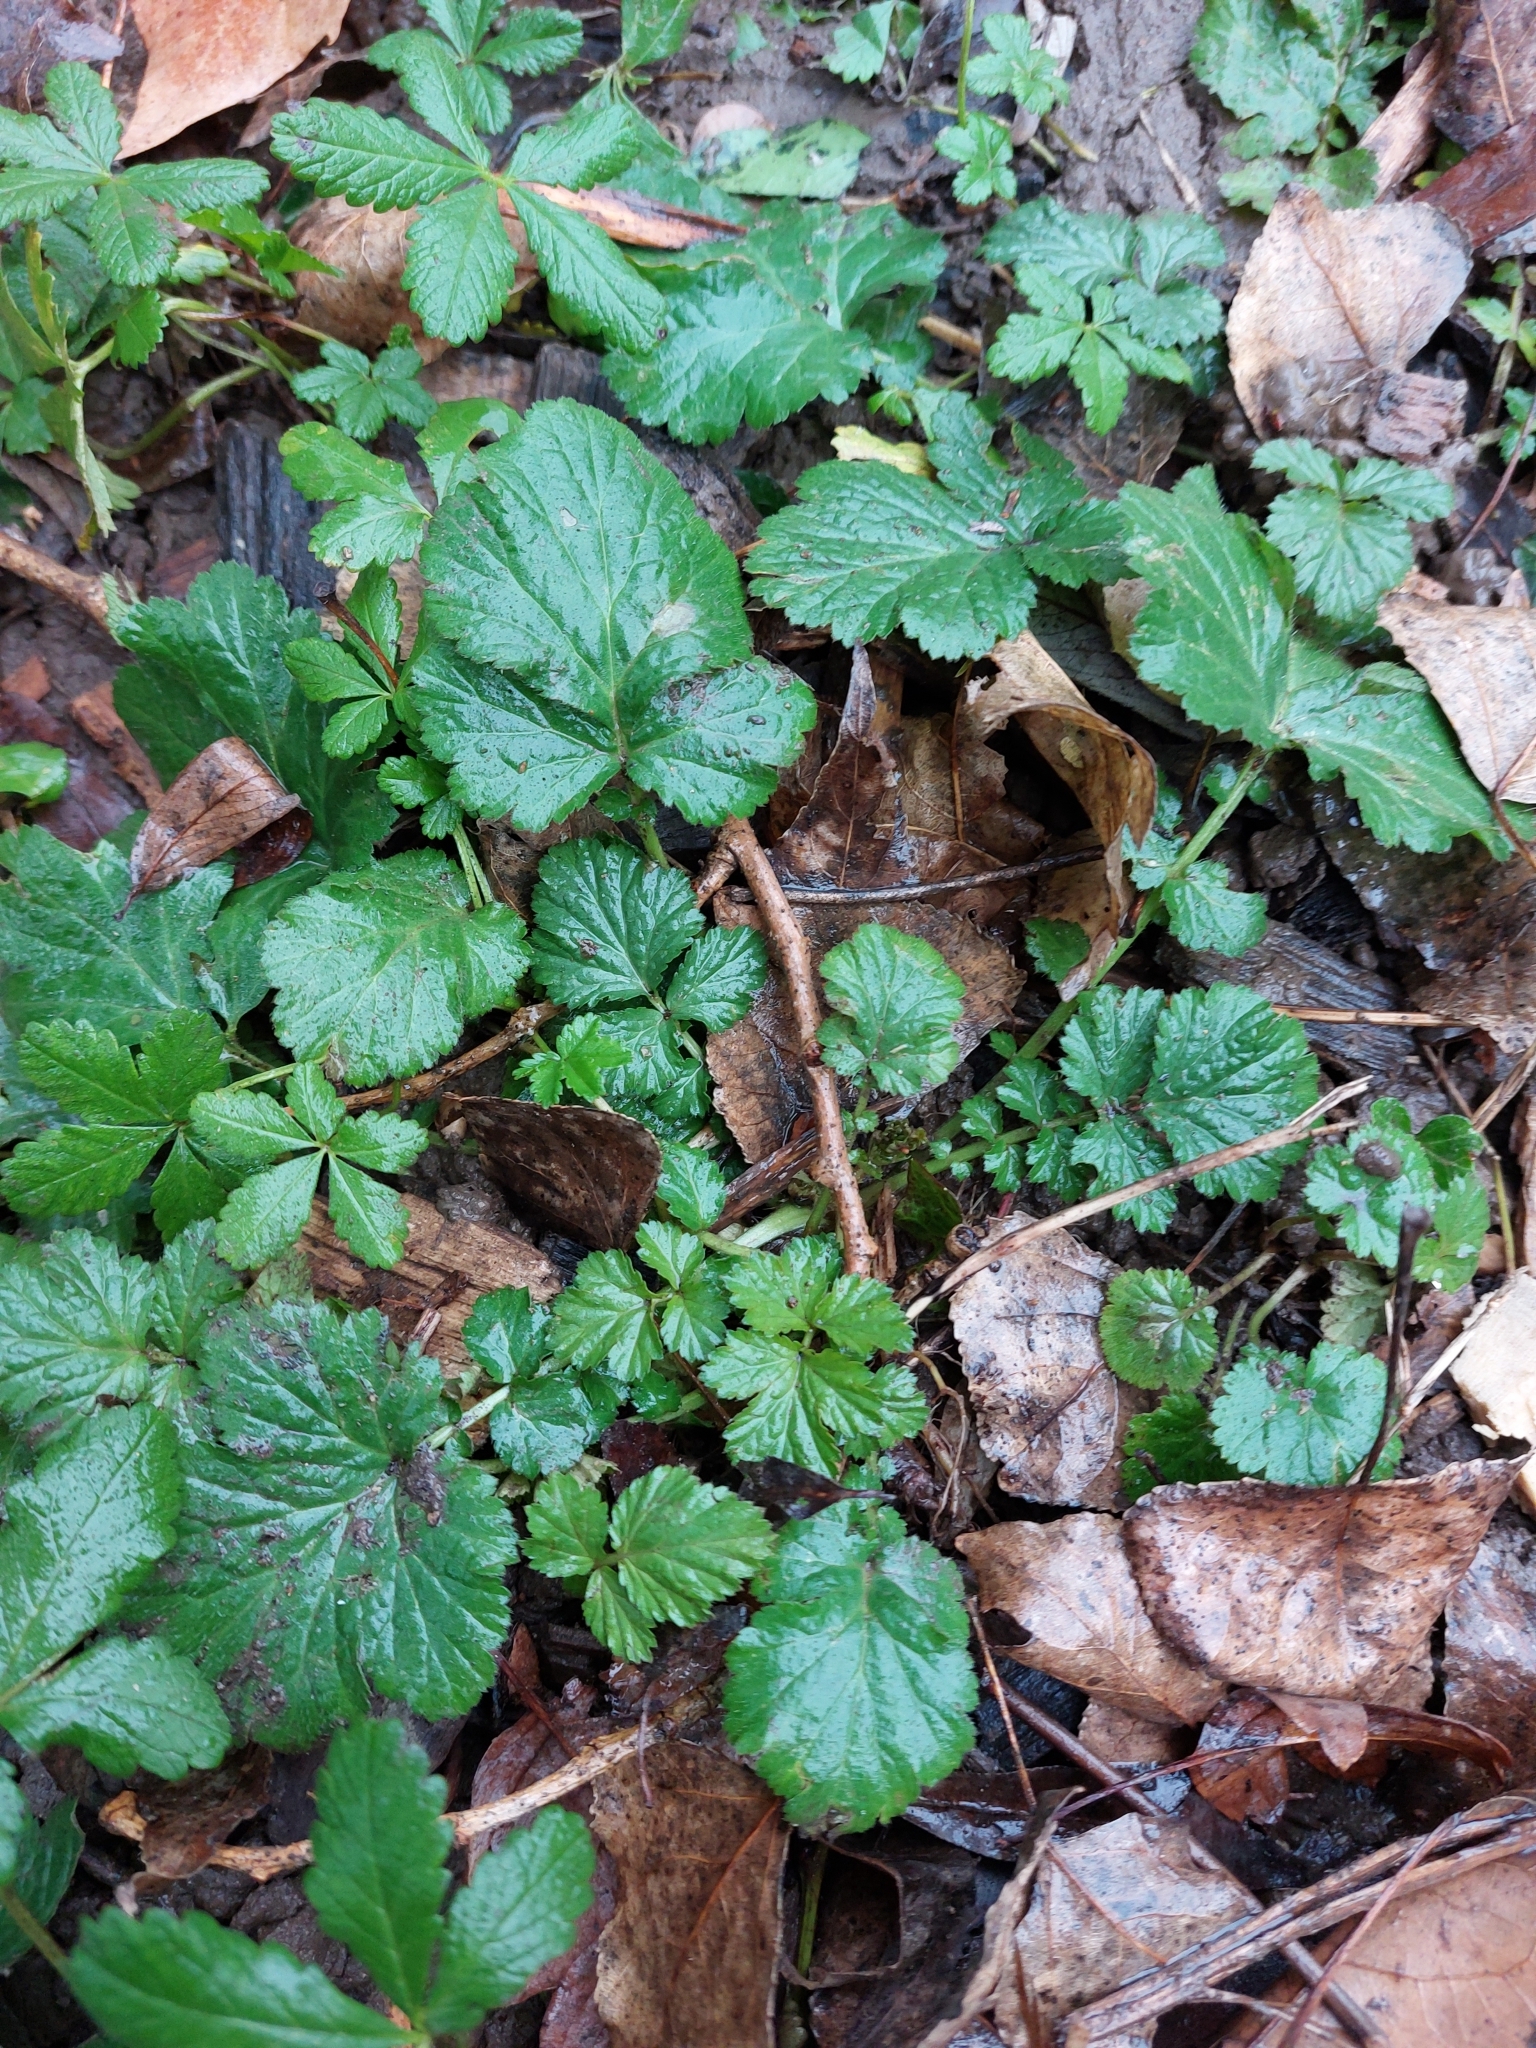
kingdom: Plantae
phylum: Tracheophyta
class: Magnoliopsida
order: Rosales
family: Rosaceae
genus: Geum
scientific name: Geum urbanum
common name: Wood avens
